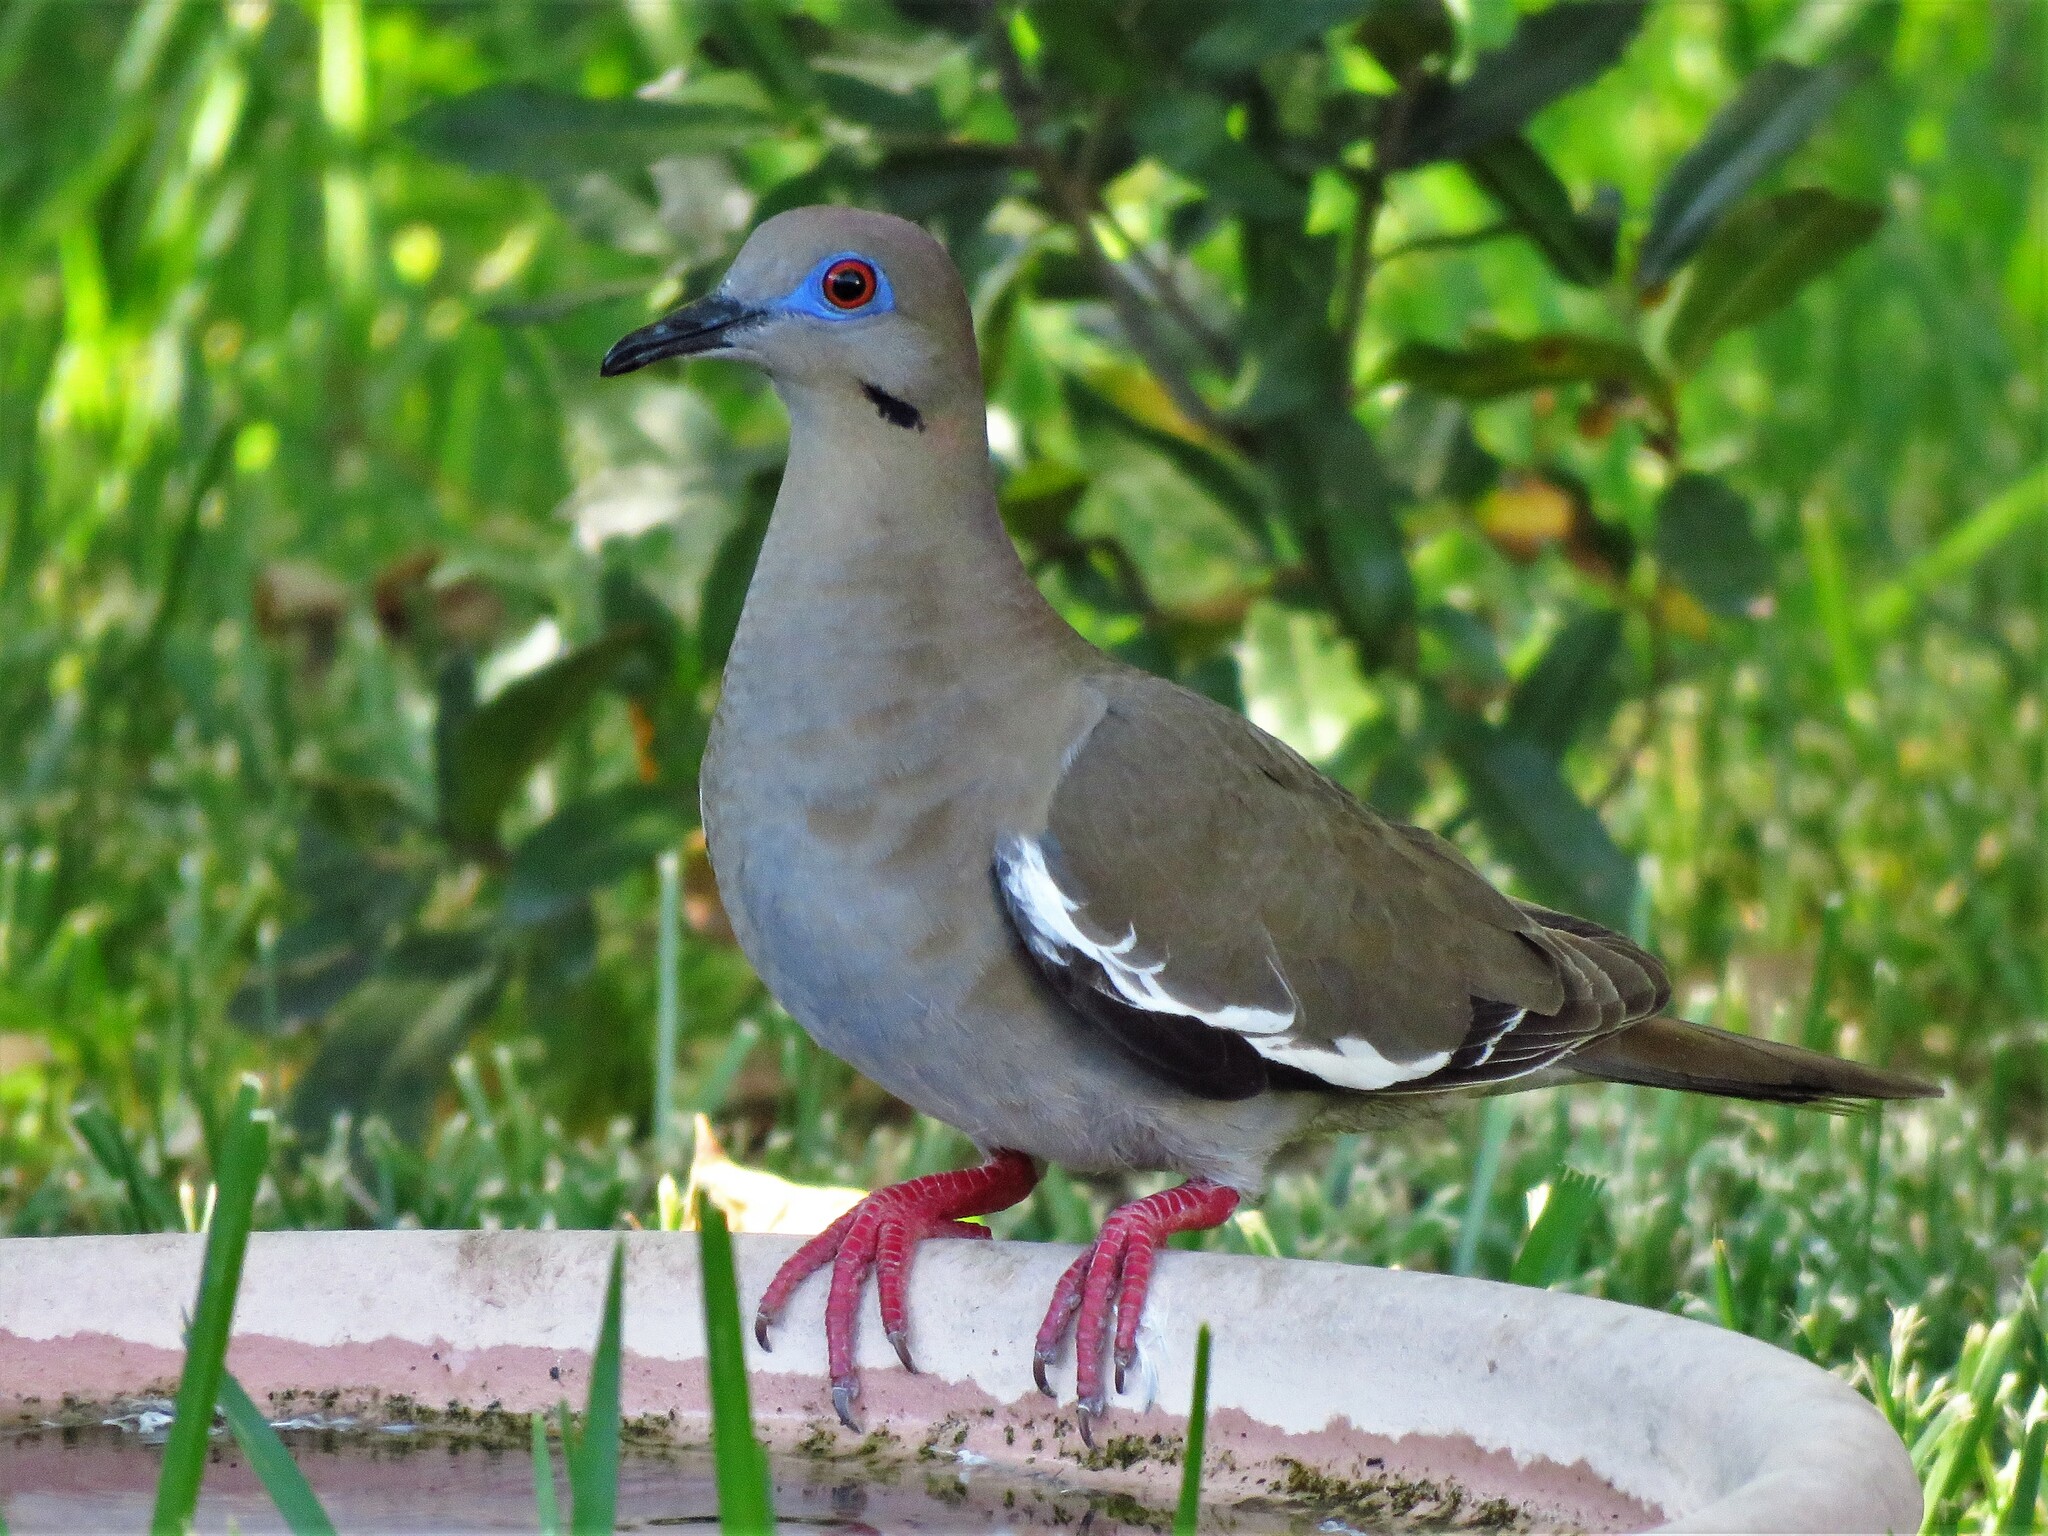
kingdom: Animalia
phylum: Chordata
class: Aves
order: Columbiformes
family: Columbidae
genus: Zenaida
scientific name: Zenaida asiatica
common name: White-winged dove
